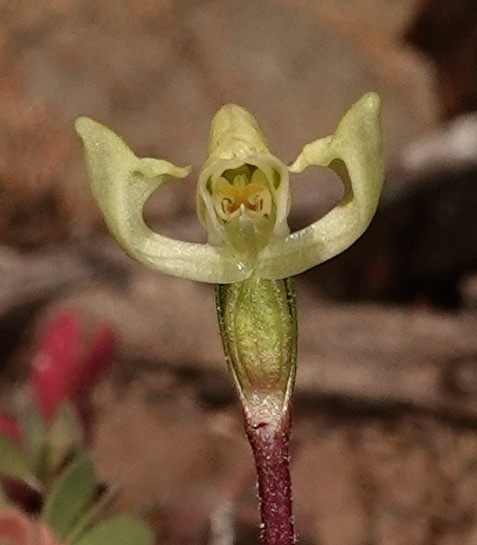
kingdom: Plantae
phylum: Tracheophyta
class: Liliopsida
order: Asparagales
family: Orchidaceae
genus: Disperis
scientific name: Disperis villosa
